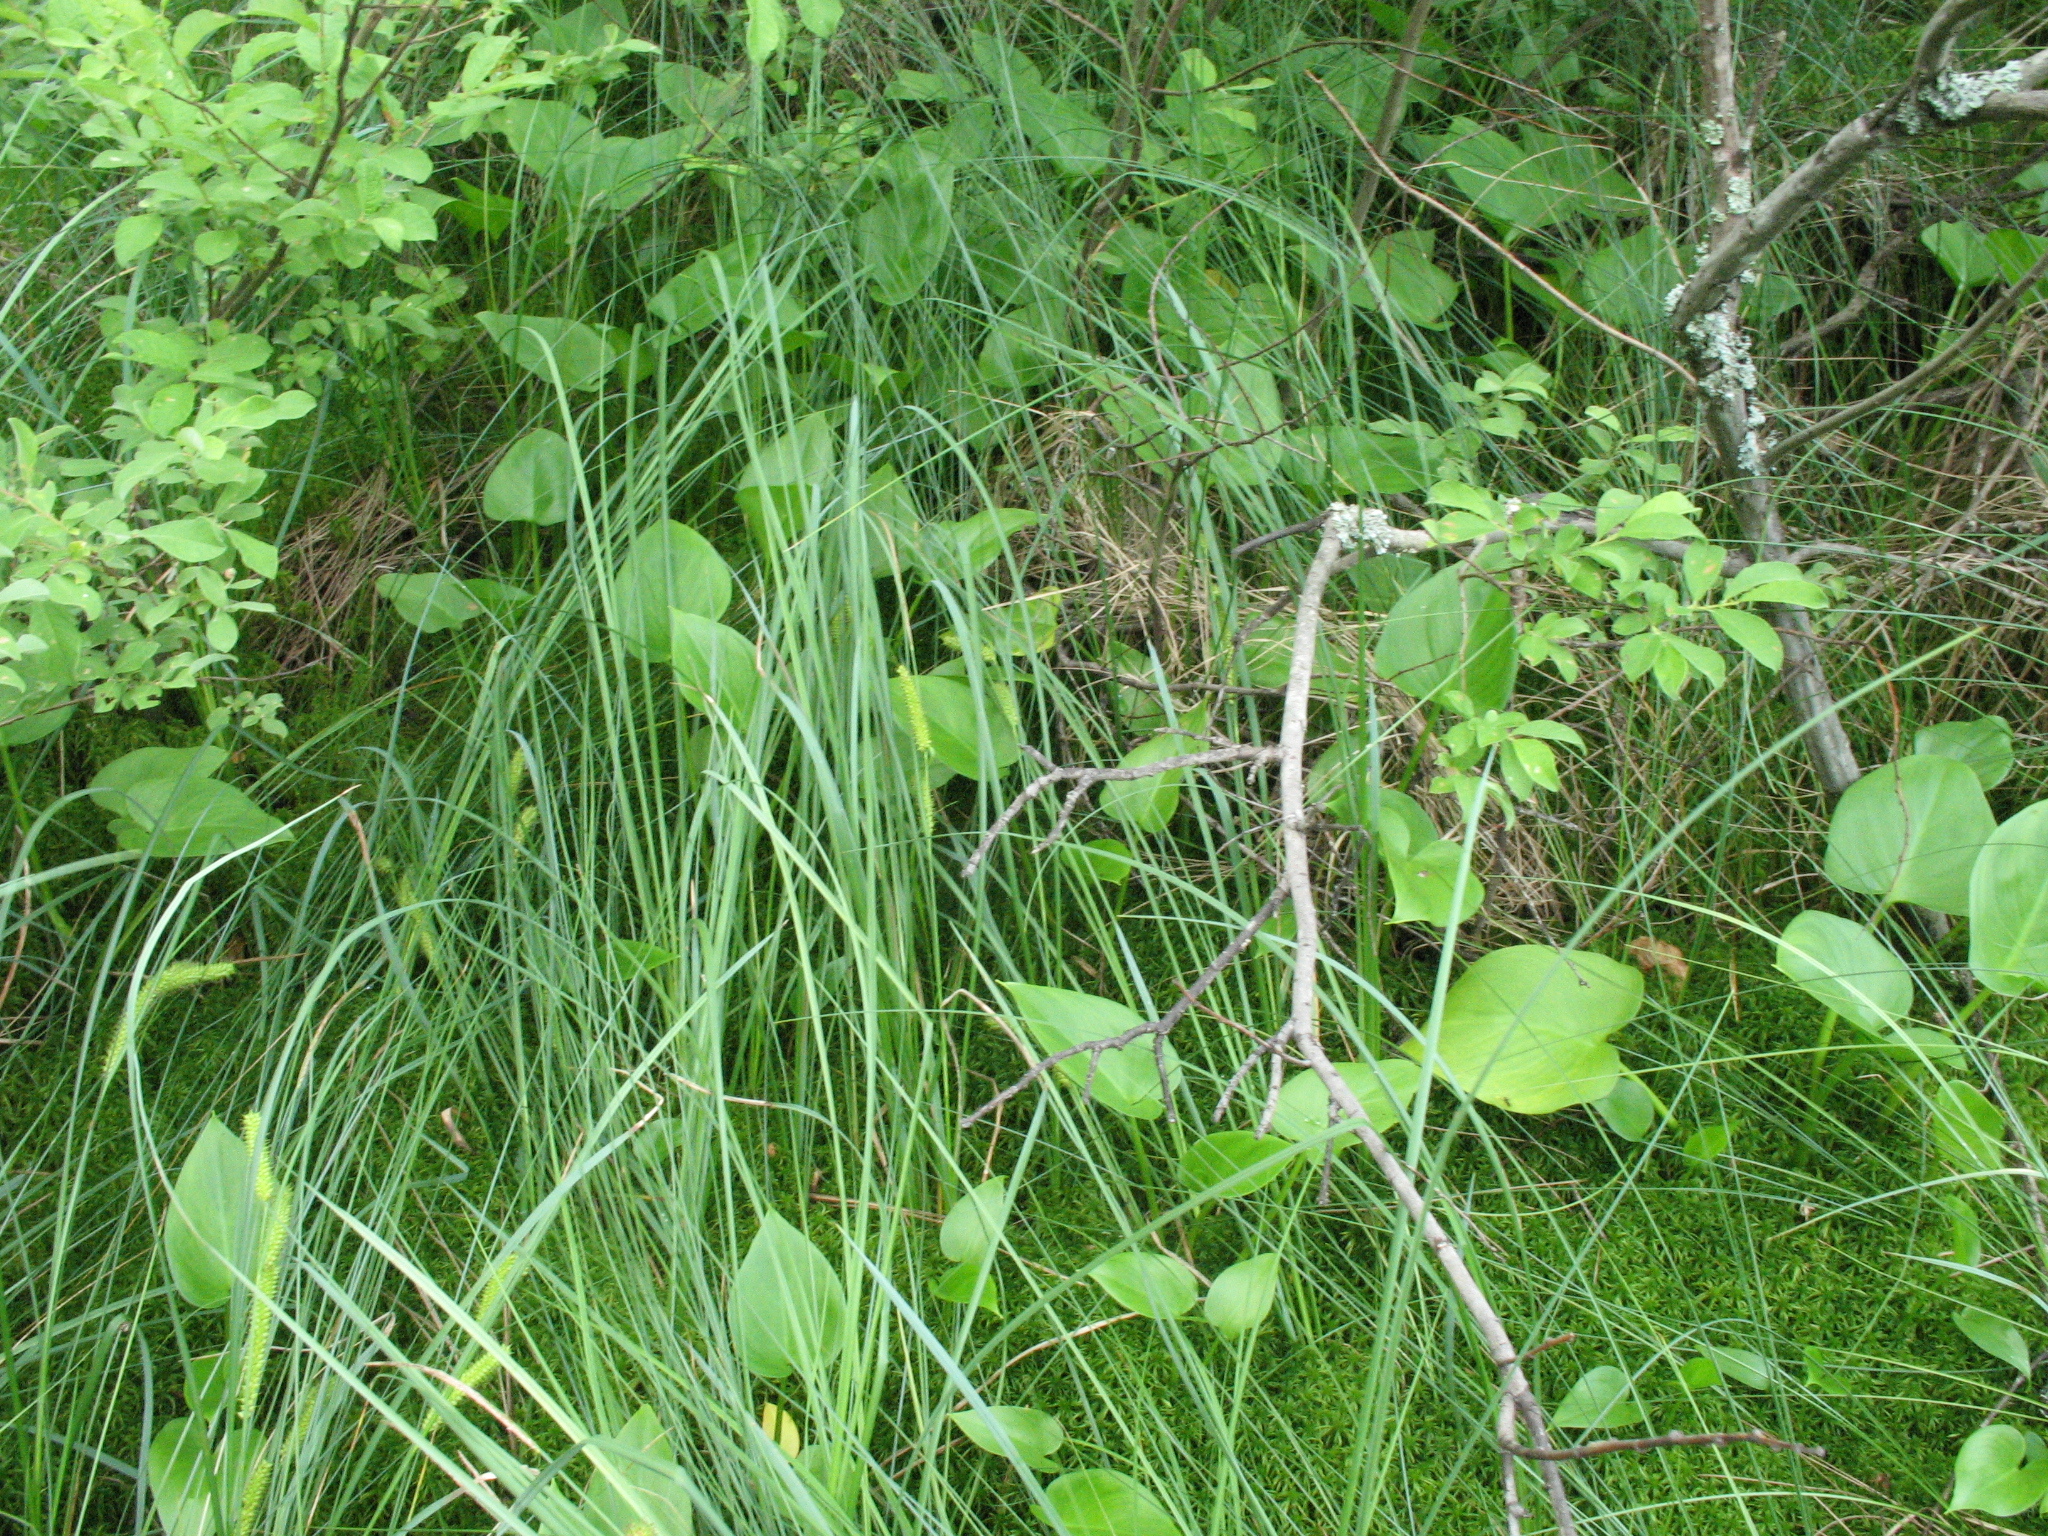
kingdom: Plantae
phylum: Tracheophyta
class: Liliopsida
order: Alismatales
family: Araceae
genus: Calla
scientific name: Calla palustris
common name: Bog arum
